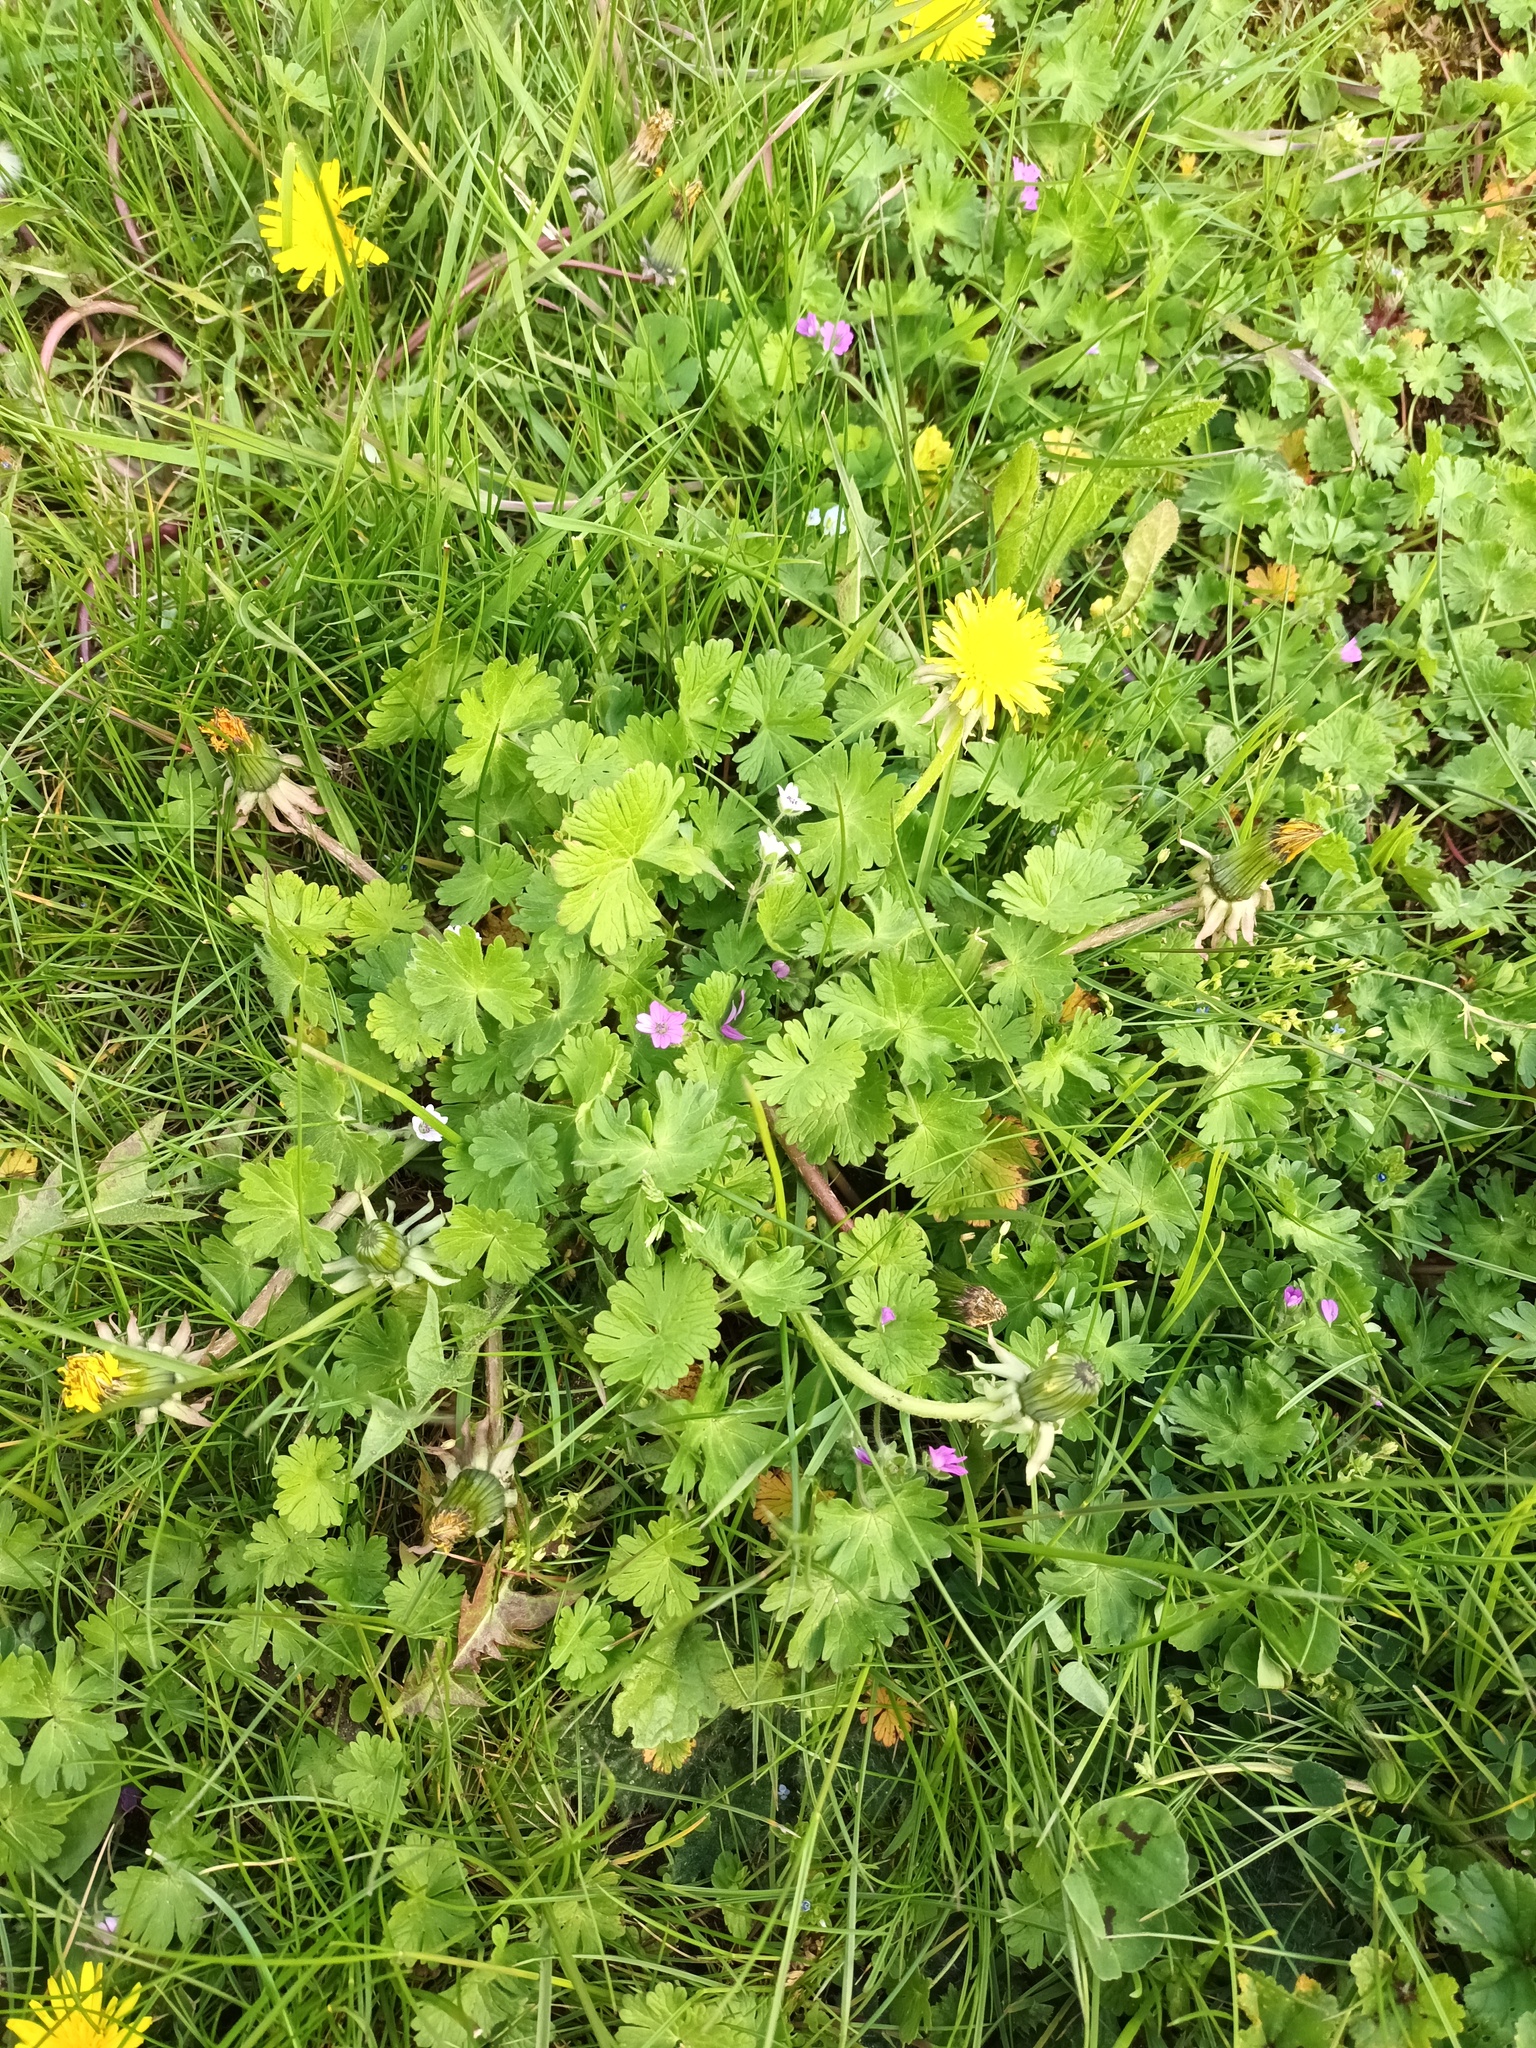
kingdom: Plantae
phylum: Tracheophyta
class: Magnoliopsida
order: Geraniales
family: Geraniaceae
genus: Geranium
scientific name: Geranium molle
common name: Dove's-foot crane's-bill
